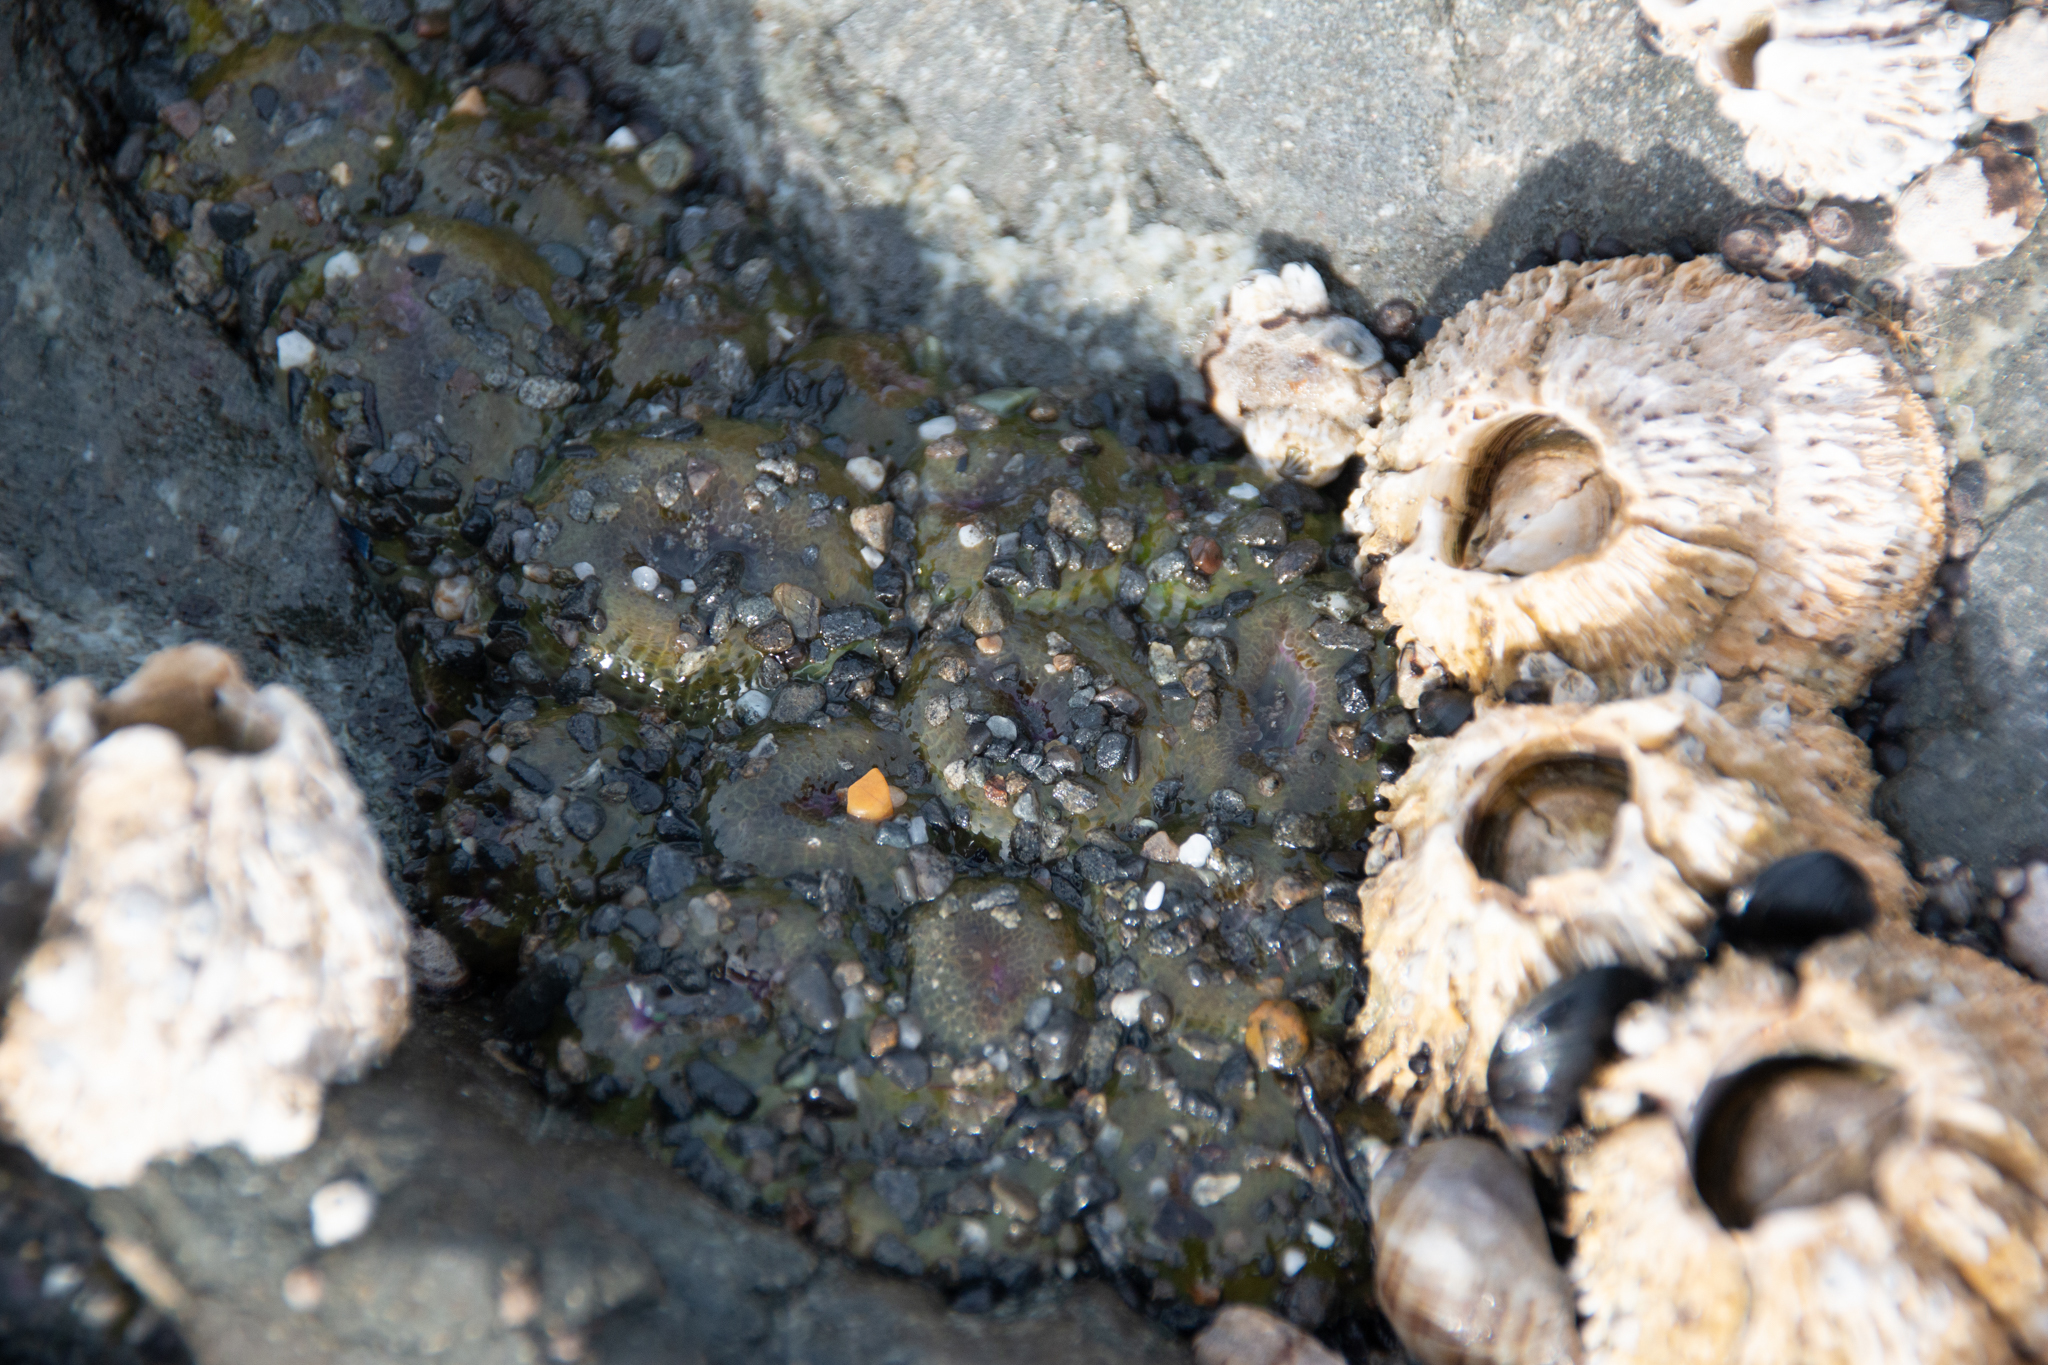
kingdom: Animalia
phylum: Cnidaria
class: Anthozoa
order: Actiniaria
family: Actiniidae
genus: Anthopleura
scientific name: Anthopleura elegantissima
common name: Clonal anemone
